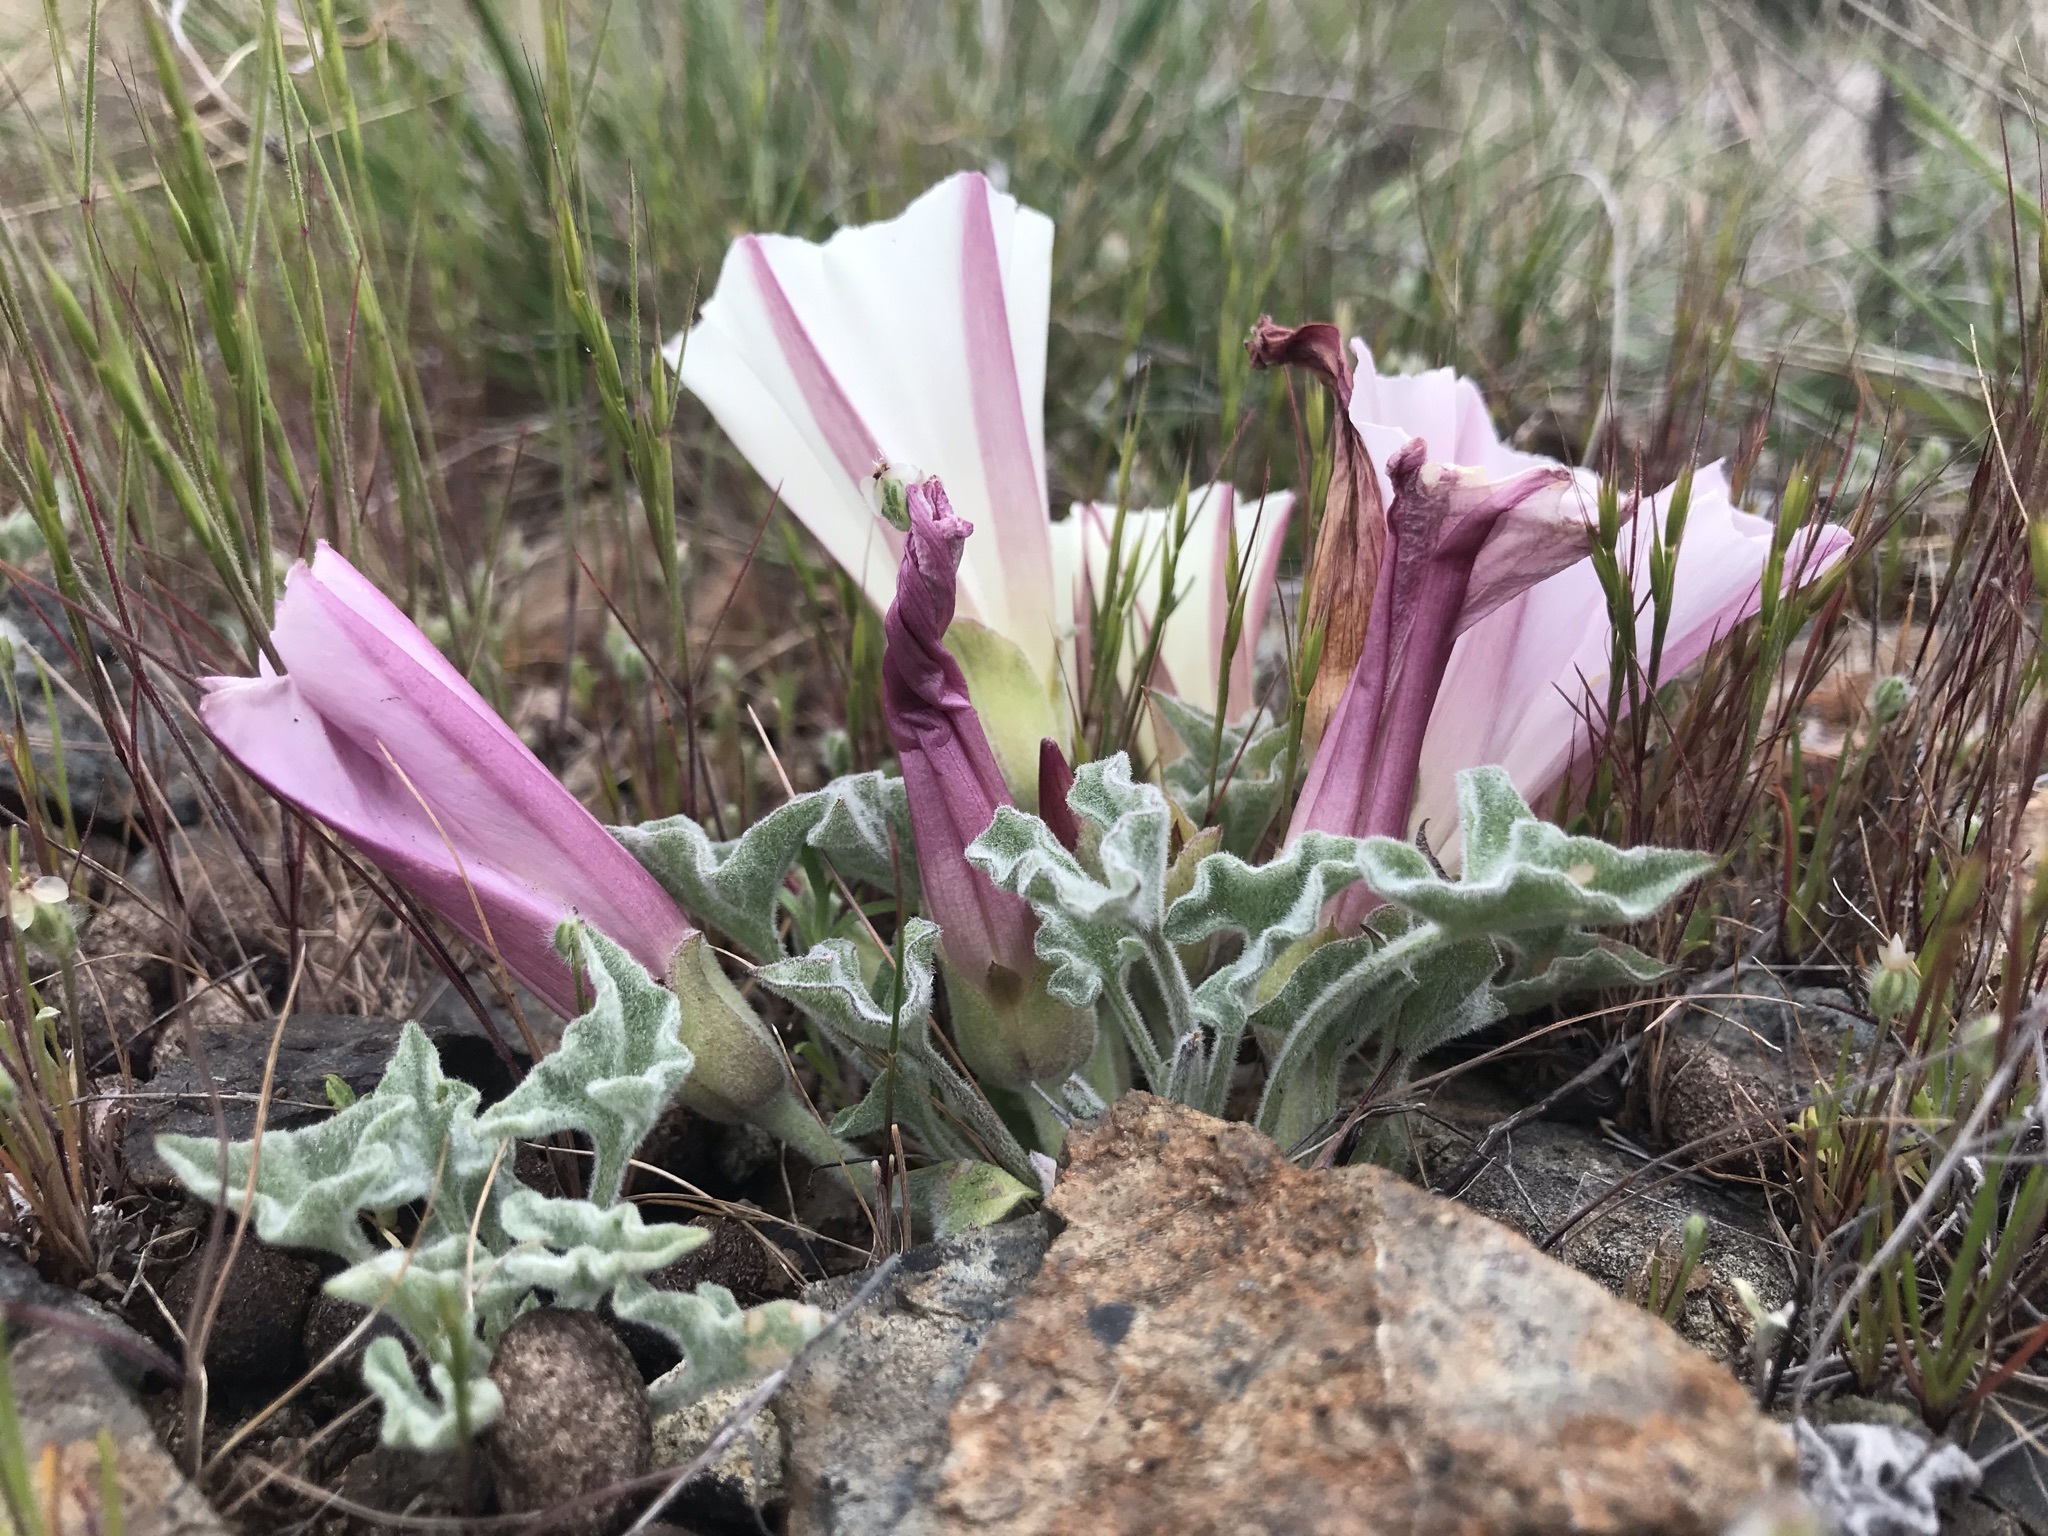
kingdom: Plantae
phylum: Tracheophyta
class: Magnoliopsida
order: Solanales
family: Convolvulaceae
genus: Calystegia
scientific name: Calystegia collina
